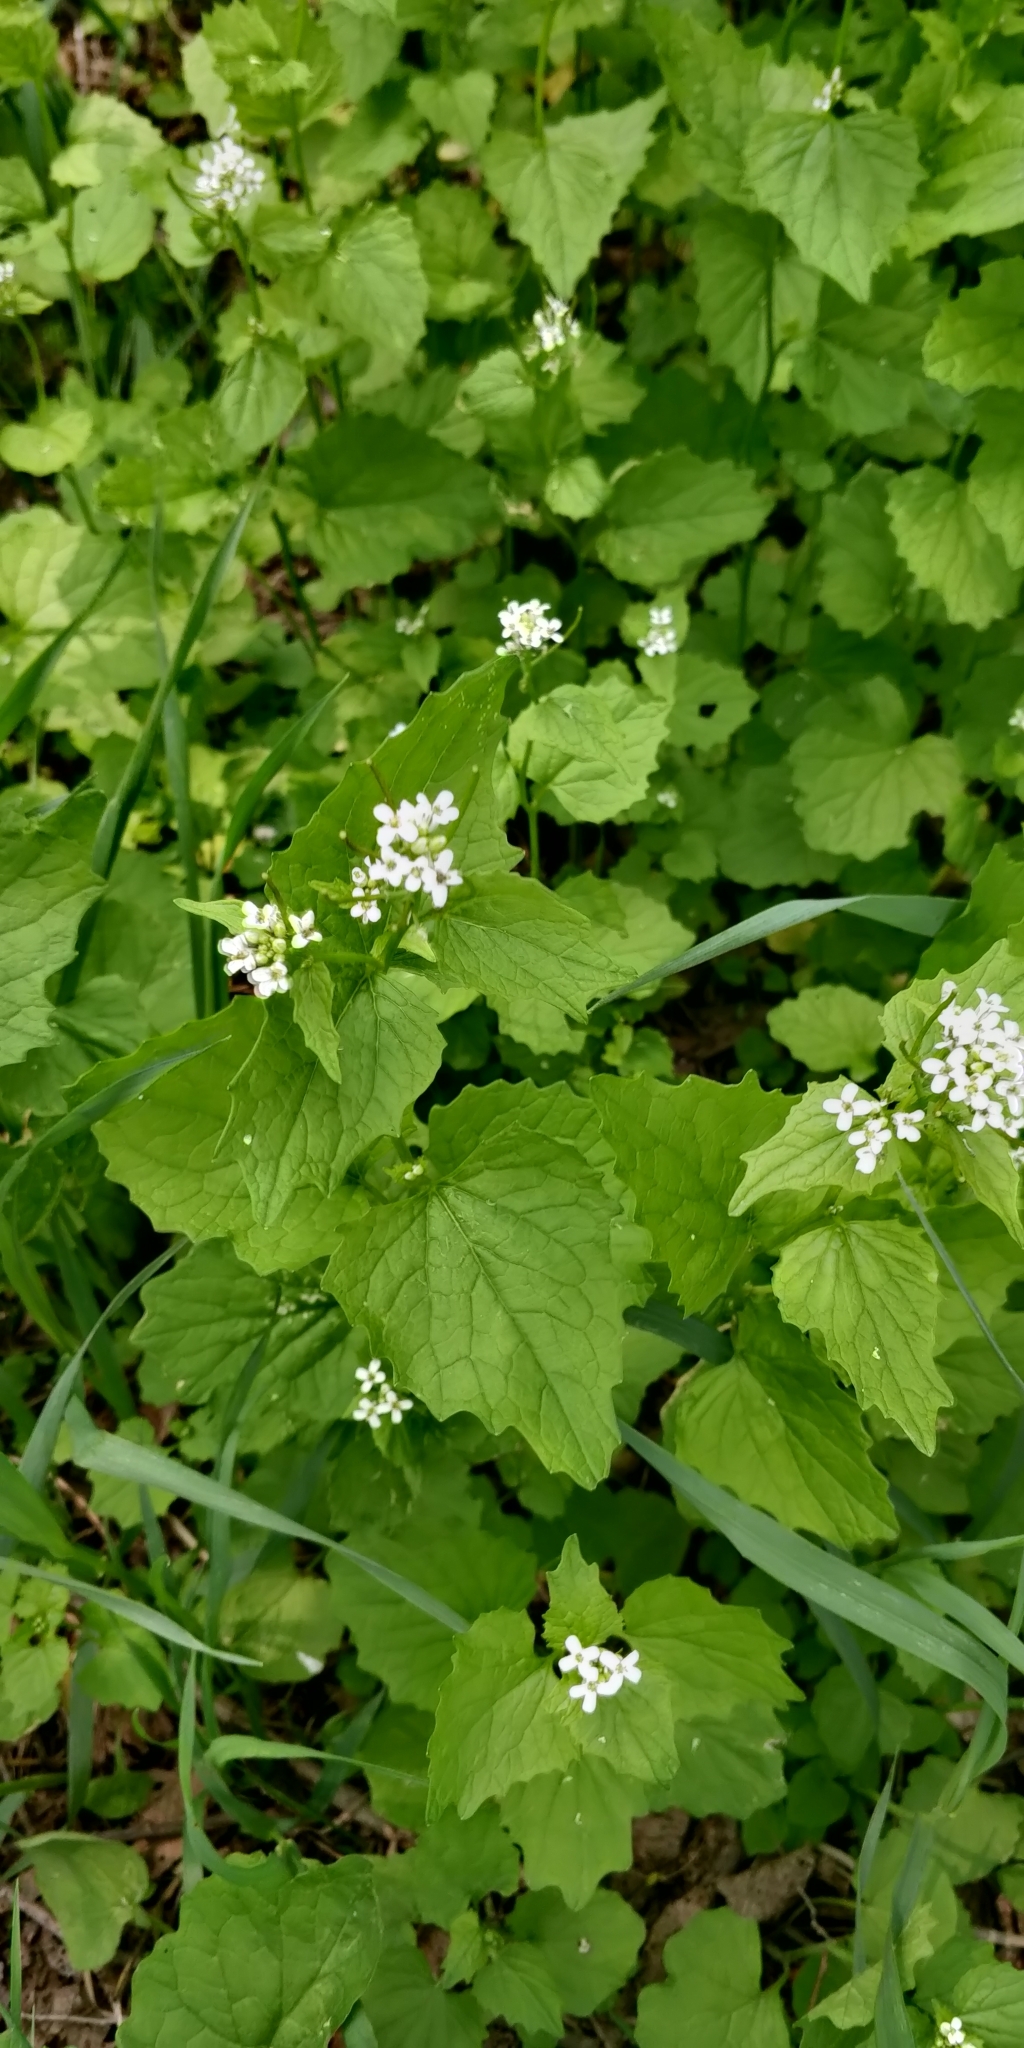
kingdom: Plantae
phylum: Tracheophyta
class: Magnoliopsida
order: Brassicales
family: Brassicaceae
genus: Alliaria
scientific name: Alliaria petiolata
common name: Garlic mustard
